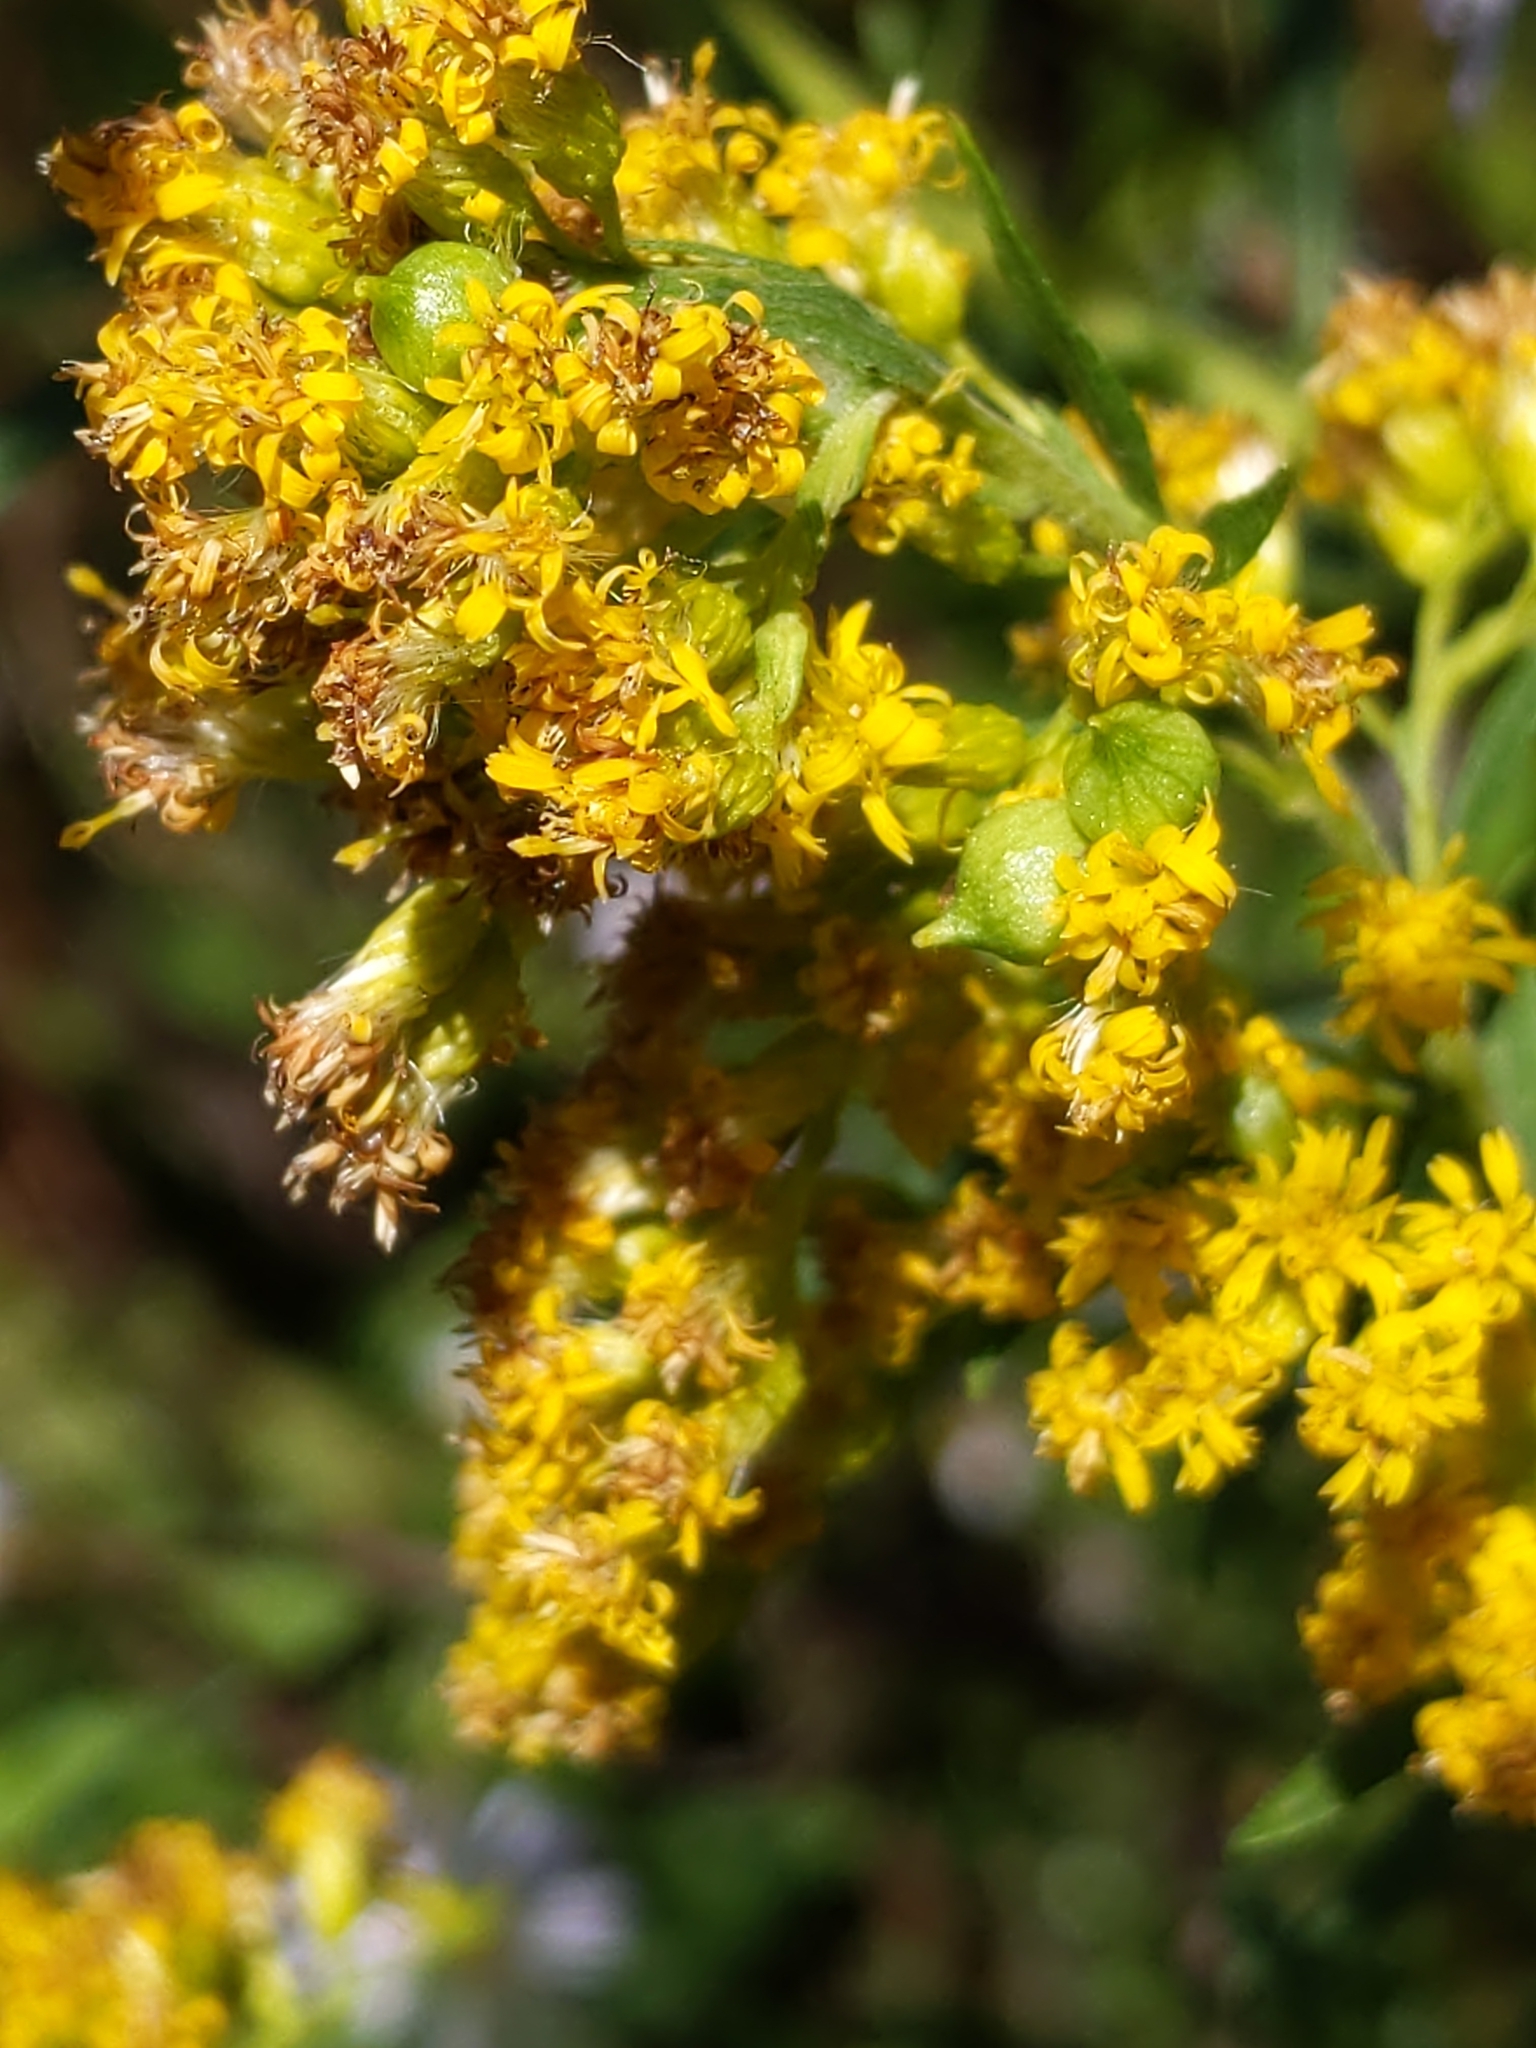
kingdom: Animalia
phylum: Arthropoda
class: Insecta
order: Diptera
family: Cecidomyiidae
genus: Schizomyia
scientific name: Schizomyia racemicola
